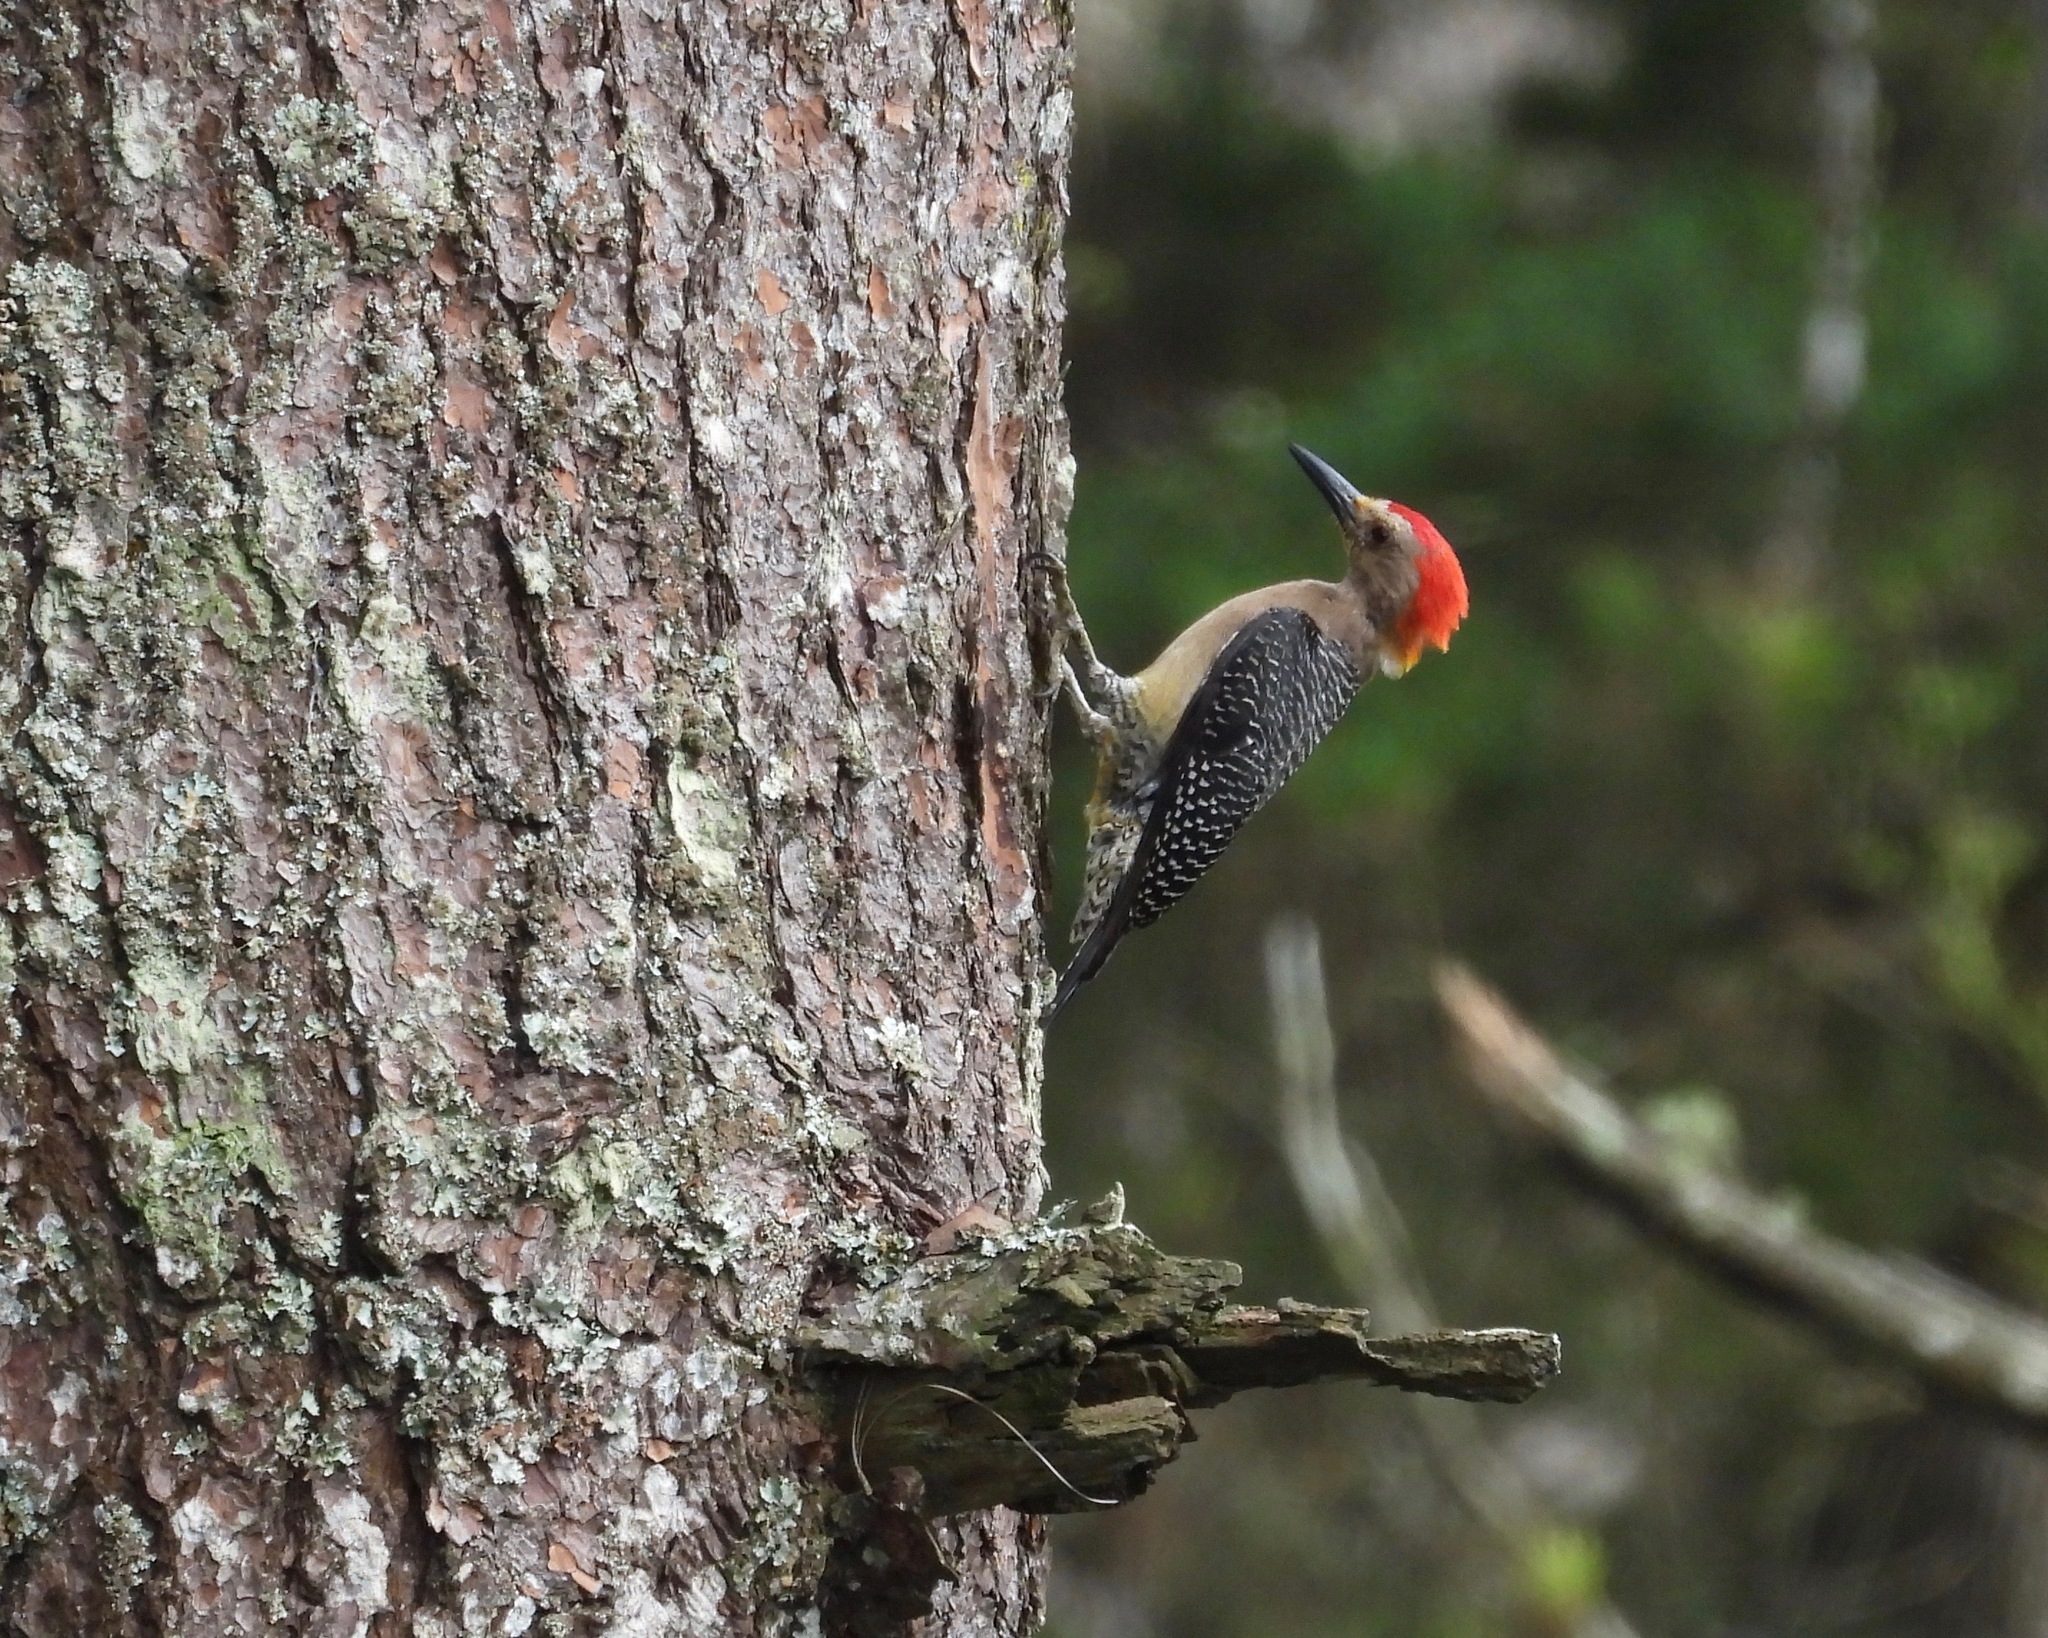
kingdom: Animalia
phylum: Chordata
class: Aves
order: Piciformes
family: Picidae
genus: Melanerpes
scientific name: Melanerpes aurifrons
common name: Golden-fronted woodpecker
